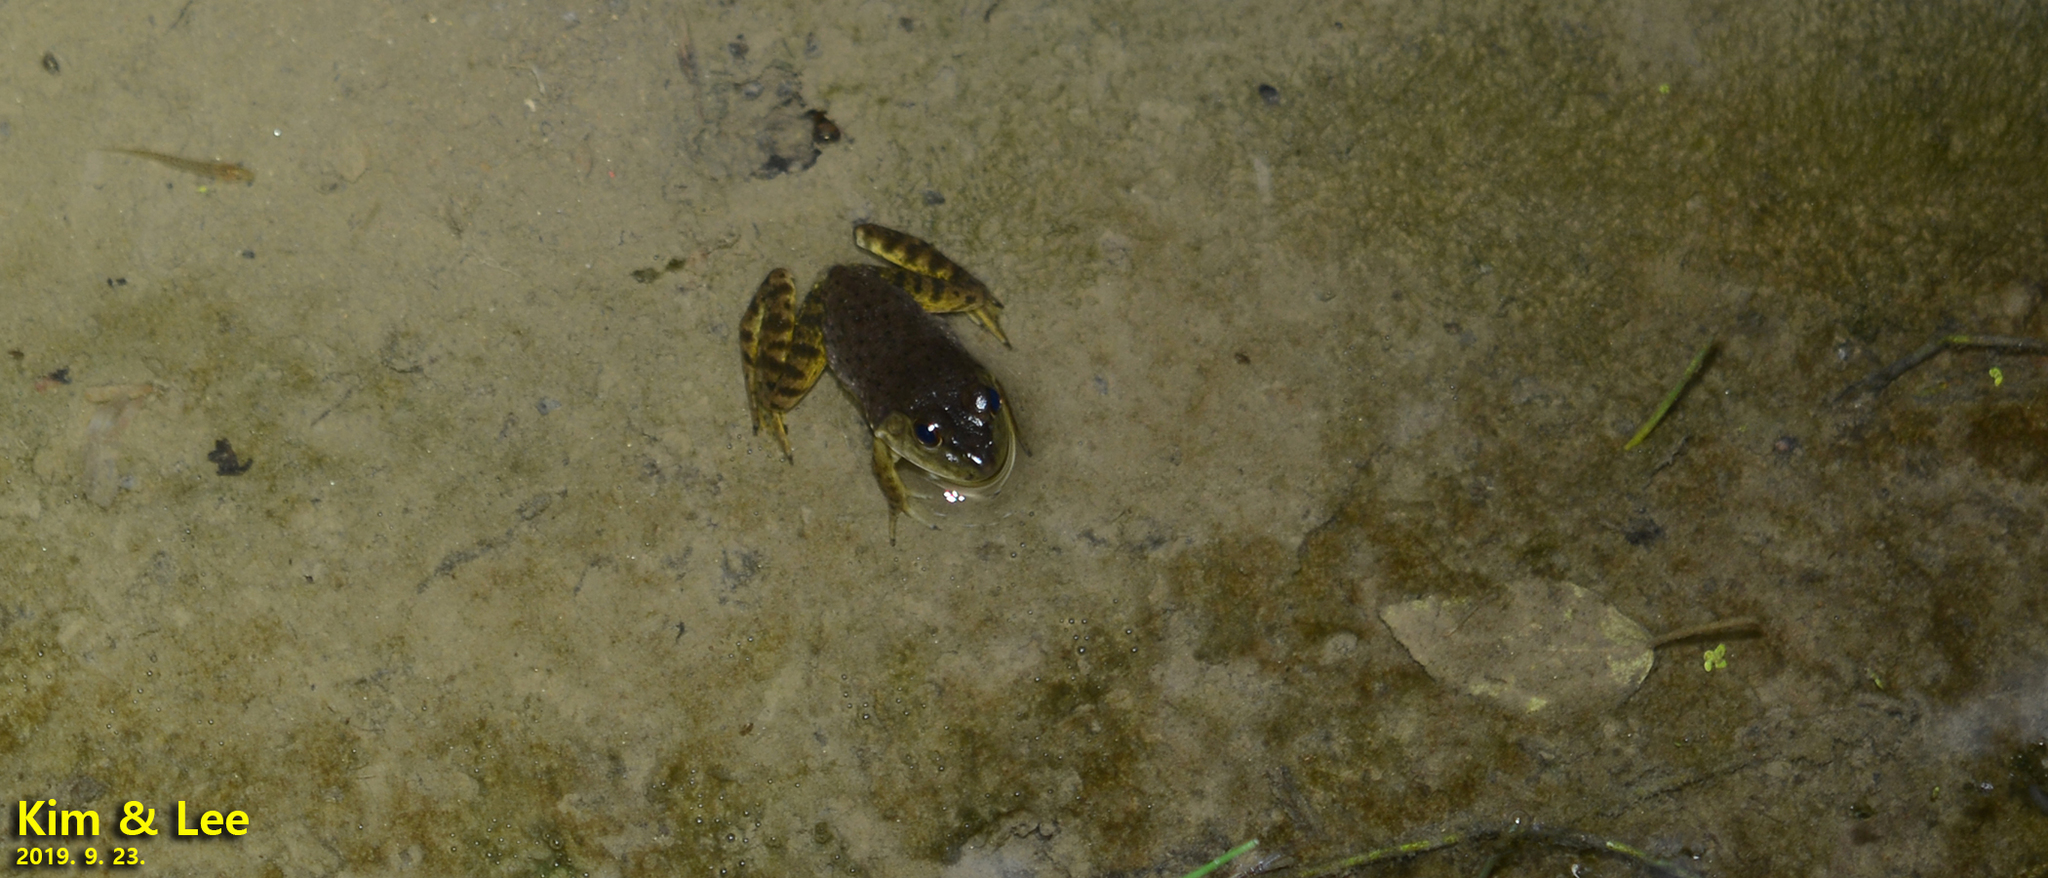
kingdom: Animalia
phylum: Chordata
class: Amphibia
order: Anura
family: Ranidae
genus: Lithobates
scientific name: Lithobates catesbeianus
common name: American bullfrog
